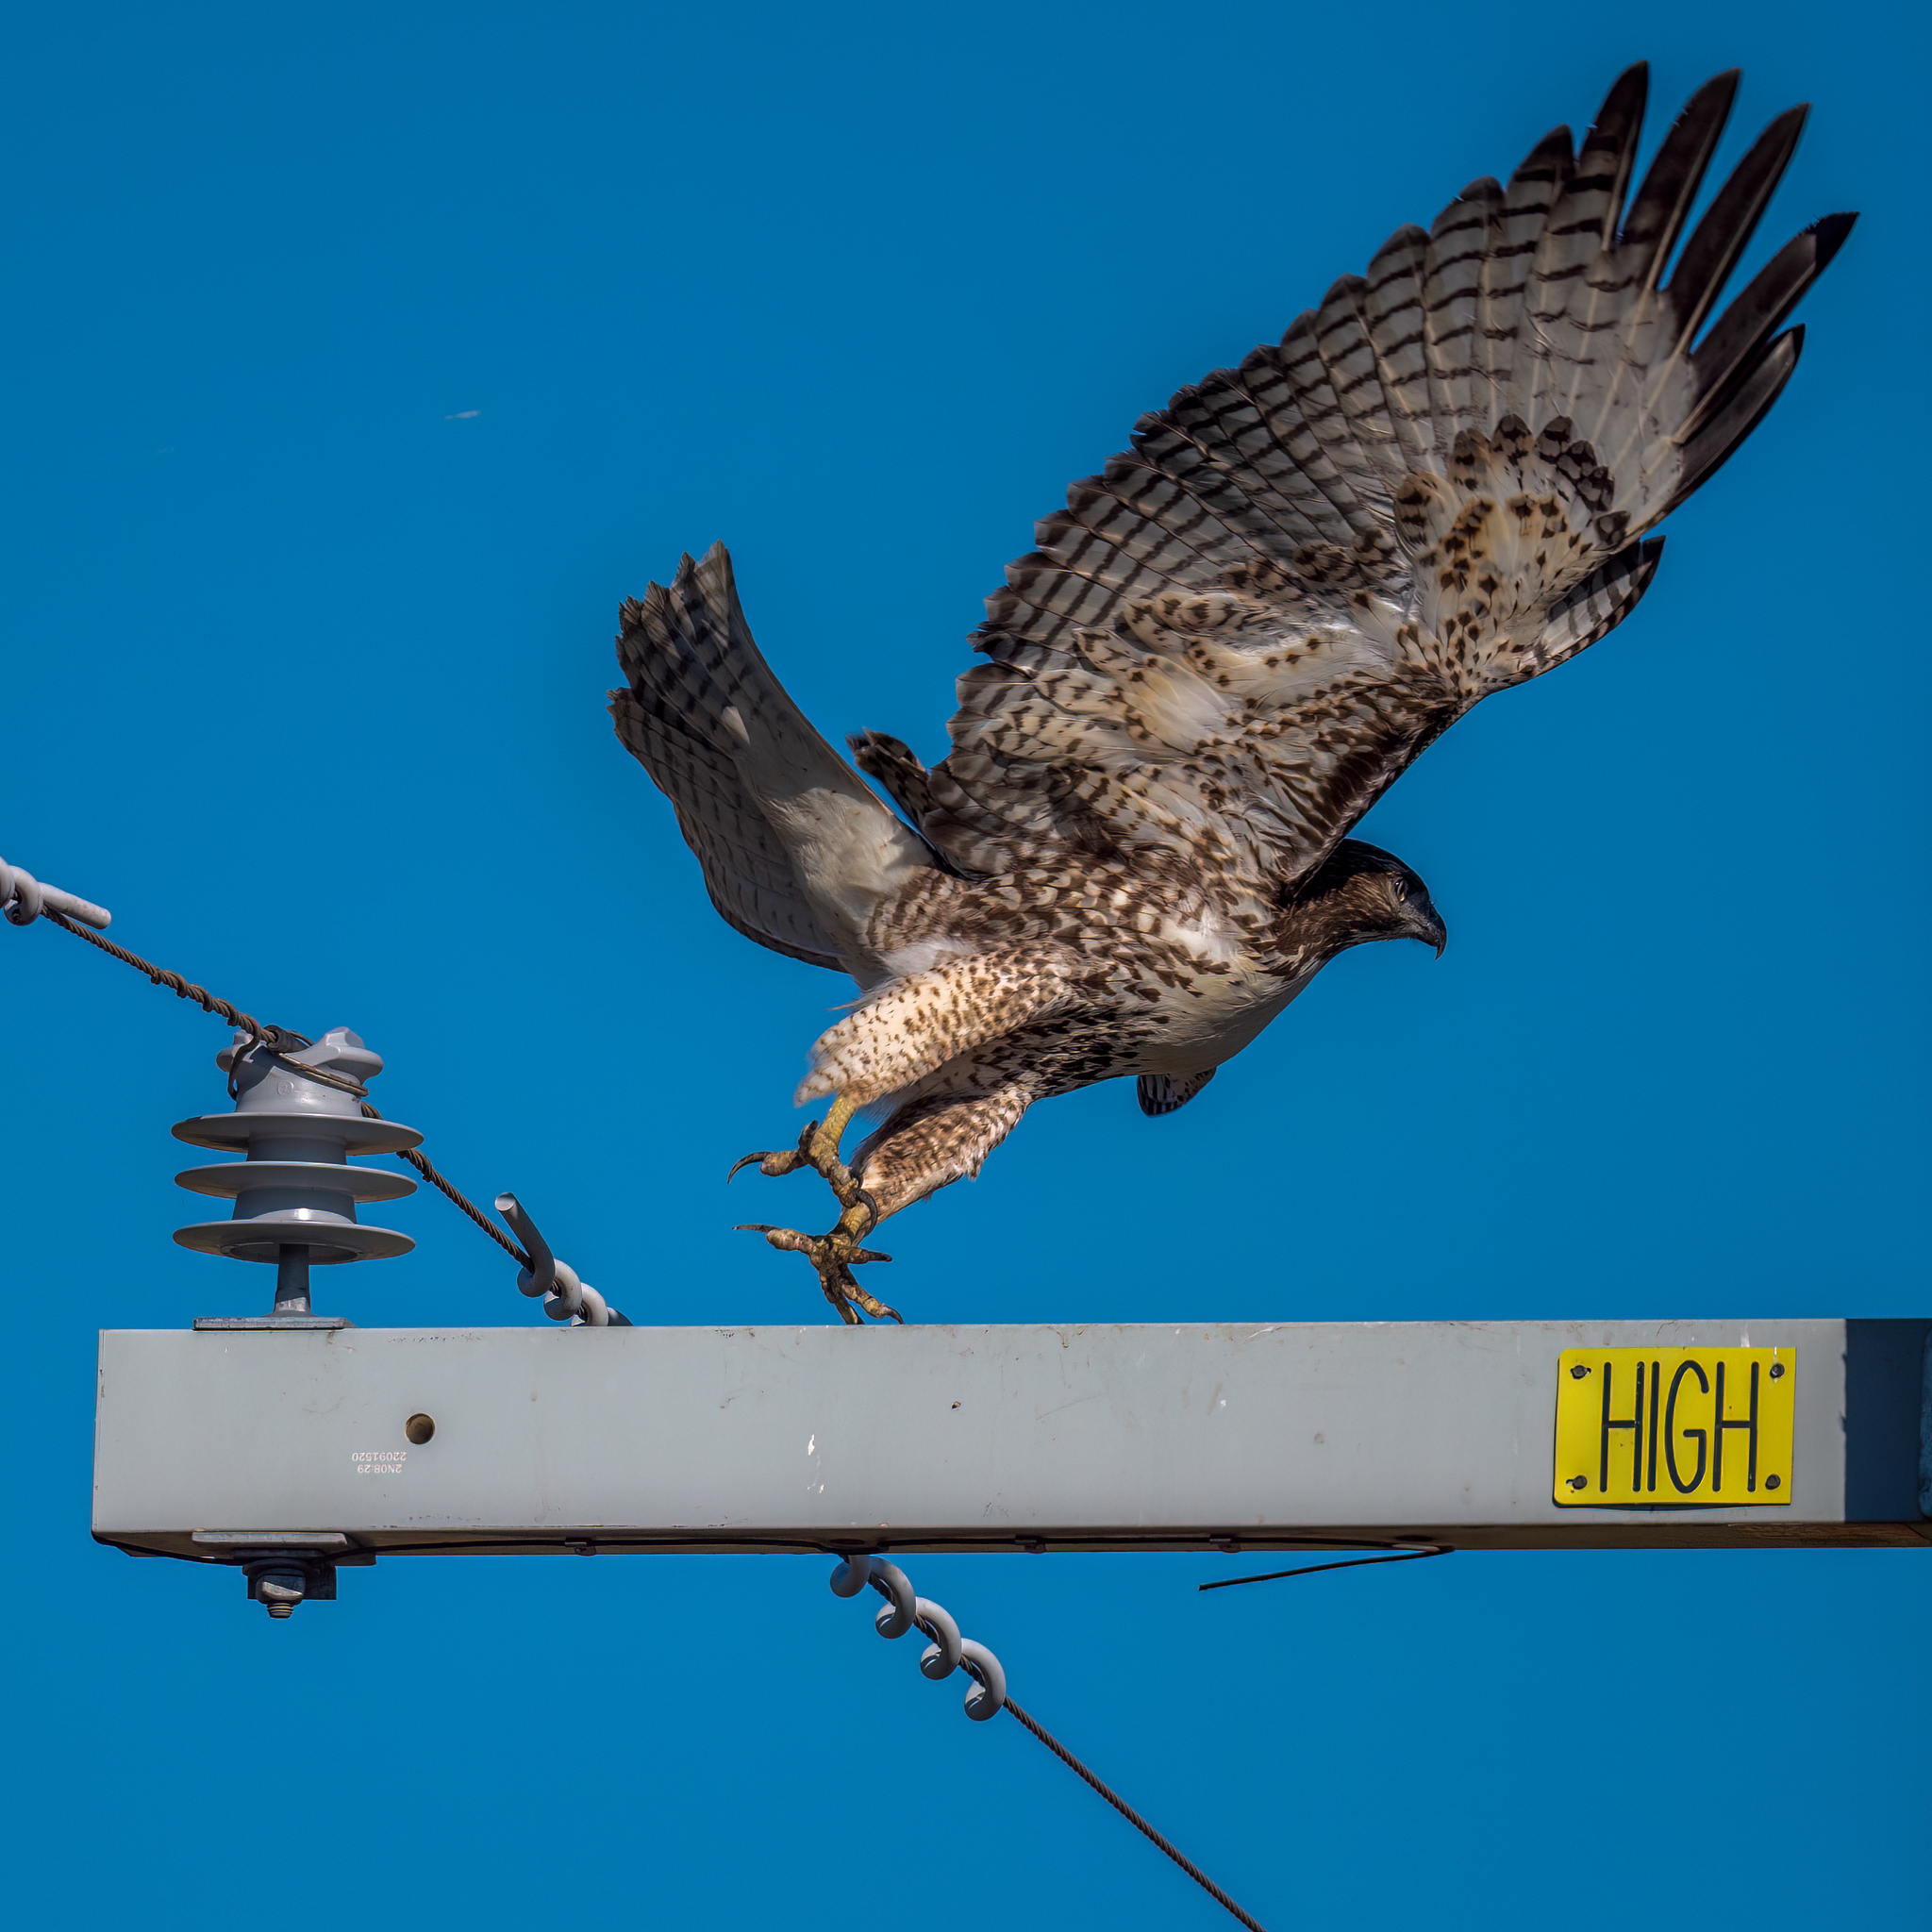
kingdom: Animalia
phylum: Chordata
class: Aves
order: Accipitriformes
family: Accipitridae
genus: Buteo
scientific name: Buteo jamaicensis
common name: Red-tailed hawk
